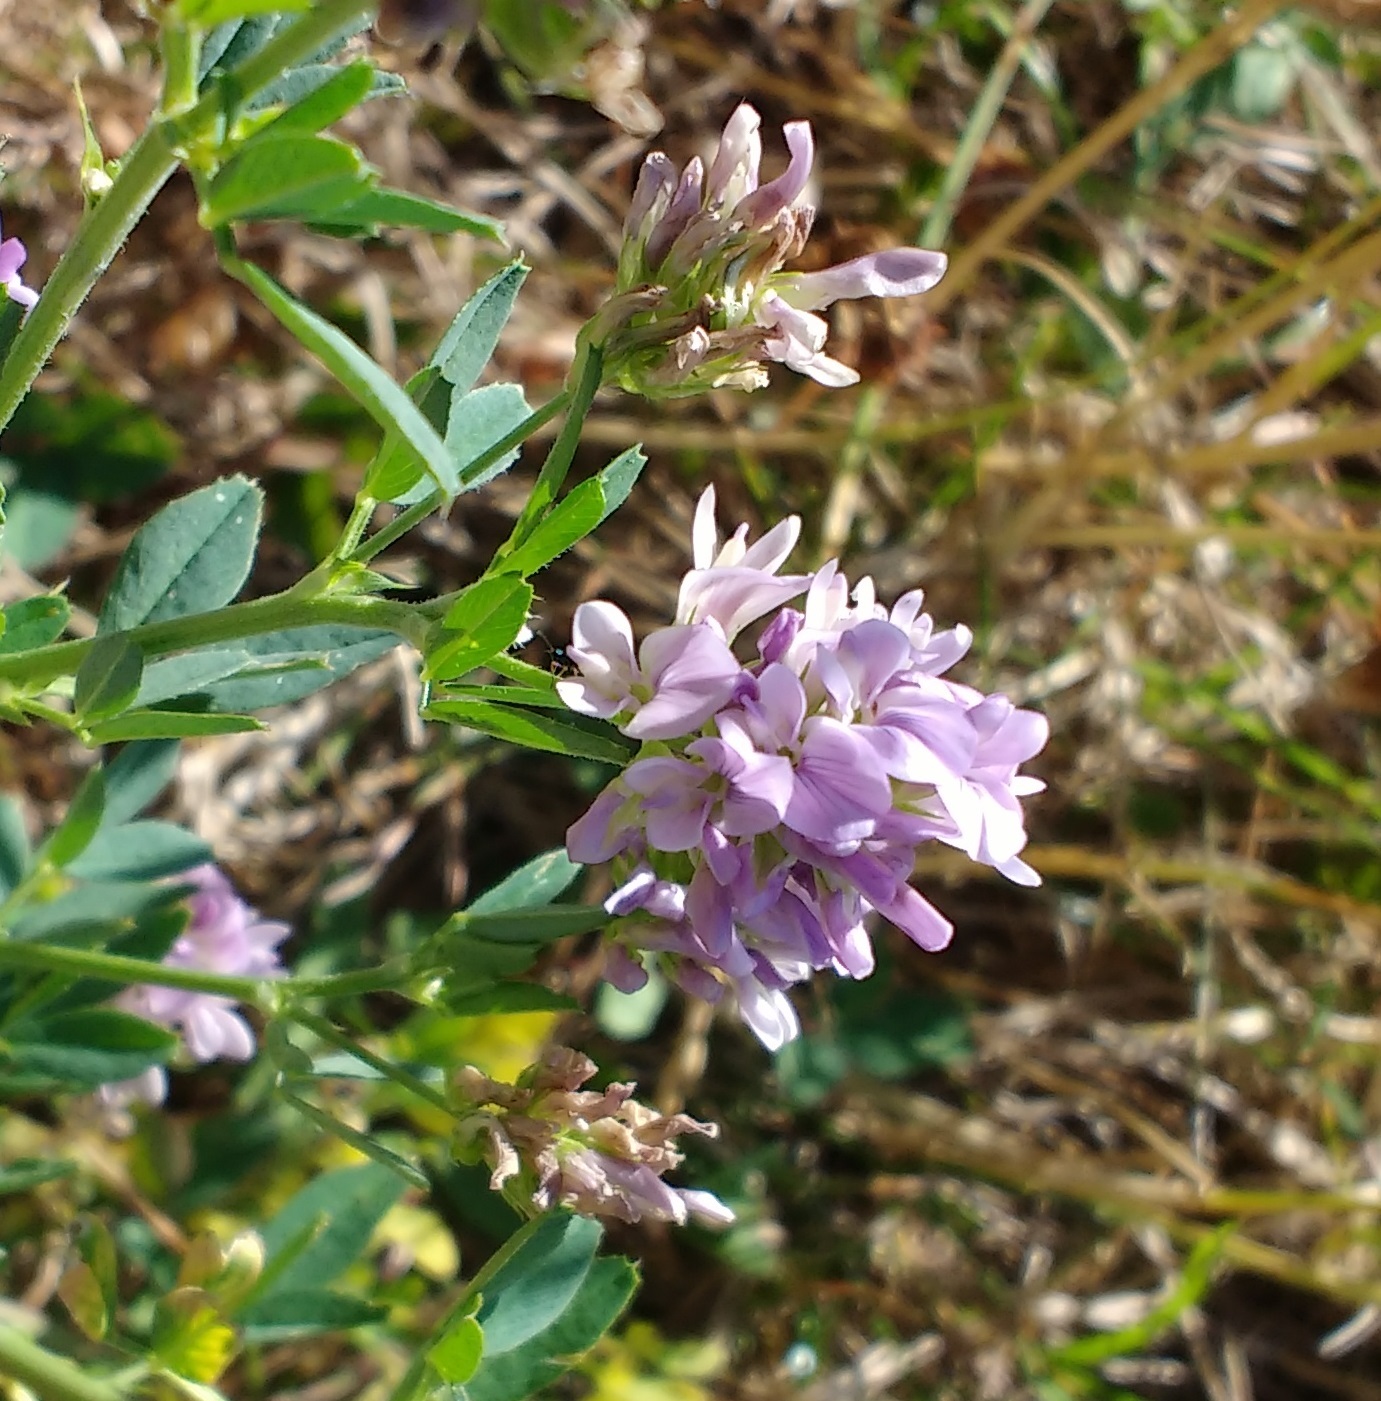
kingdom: Plantae
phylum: Tracheophyta
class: Magnoliopsida
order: Fabales
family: Fabaceae
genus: Medicago
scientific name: Medicago sativa
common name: Alfalfa
